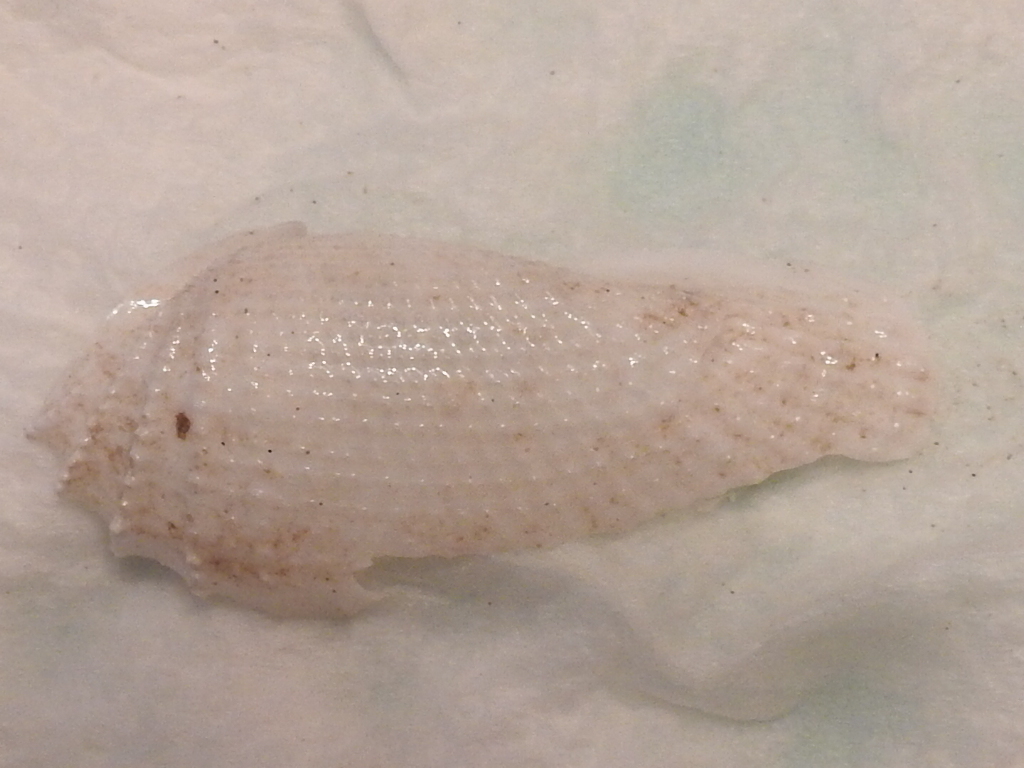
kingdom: Animalia
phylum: Mollusca
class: Bivalvia
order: Myida
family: Pholadidae
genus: Cyrtopleura
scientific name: Cyrtopleura costata
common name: Angel wing
